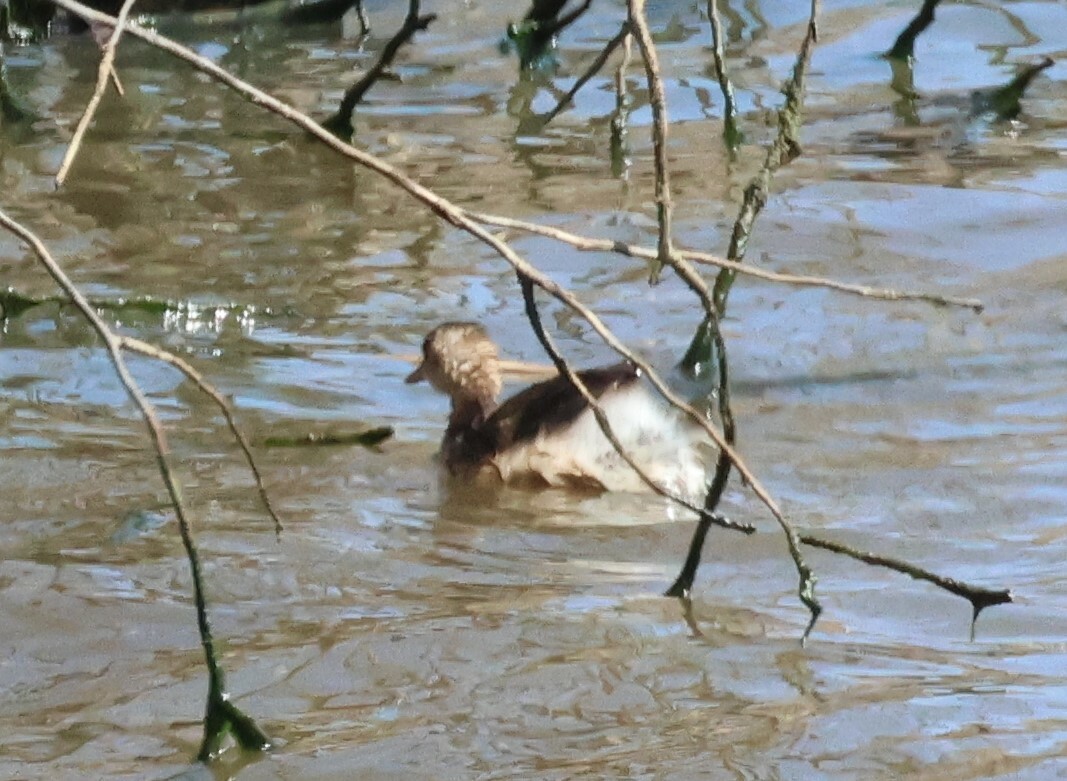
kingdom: Animalia
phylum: Chordata
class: Aves
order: Podicipediformes
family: Podicipedidae
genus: Tachybaptus
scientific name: Tachybaptus ruficollis
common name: Little grebe
